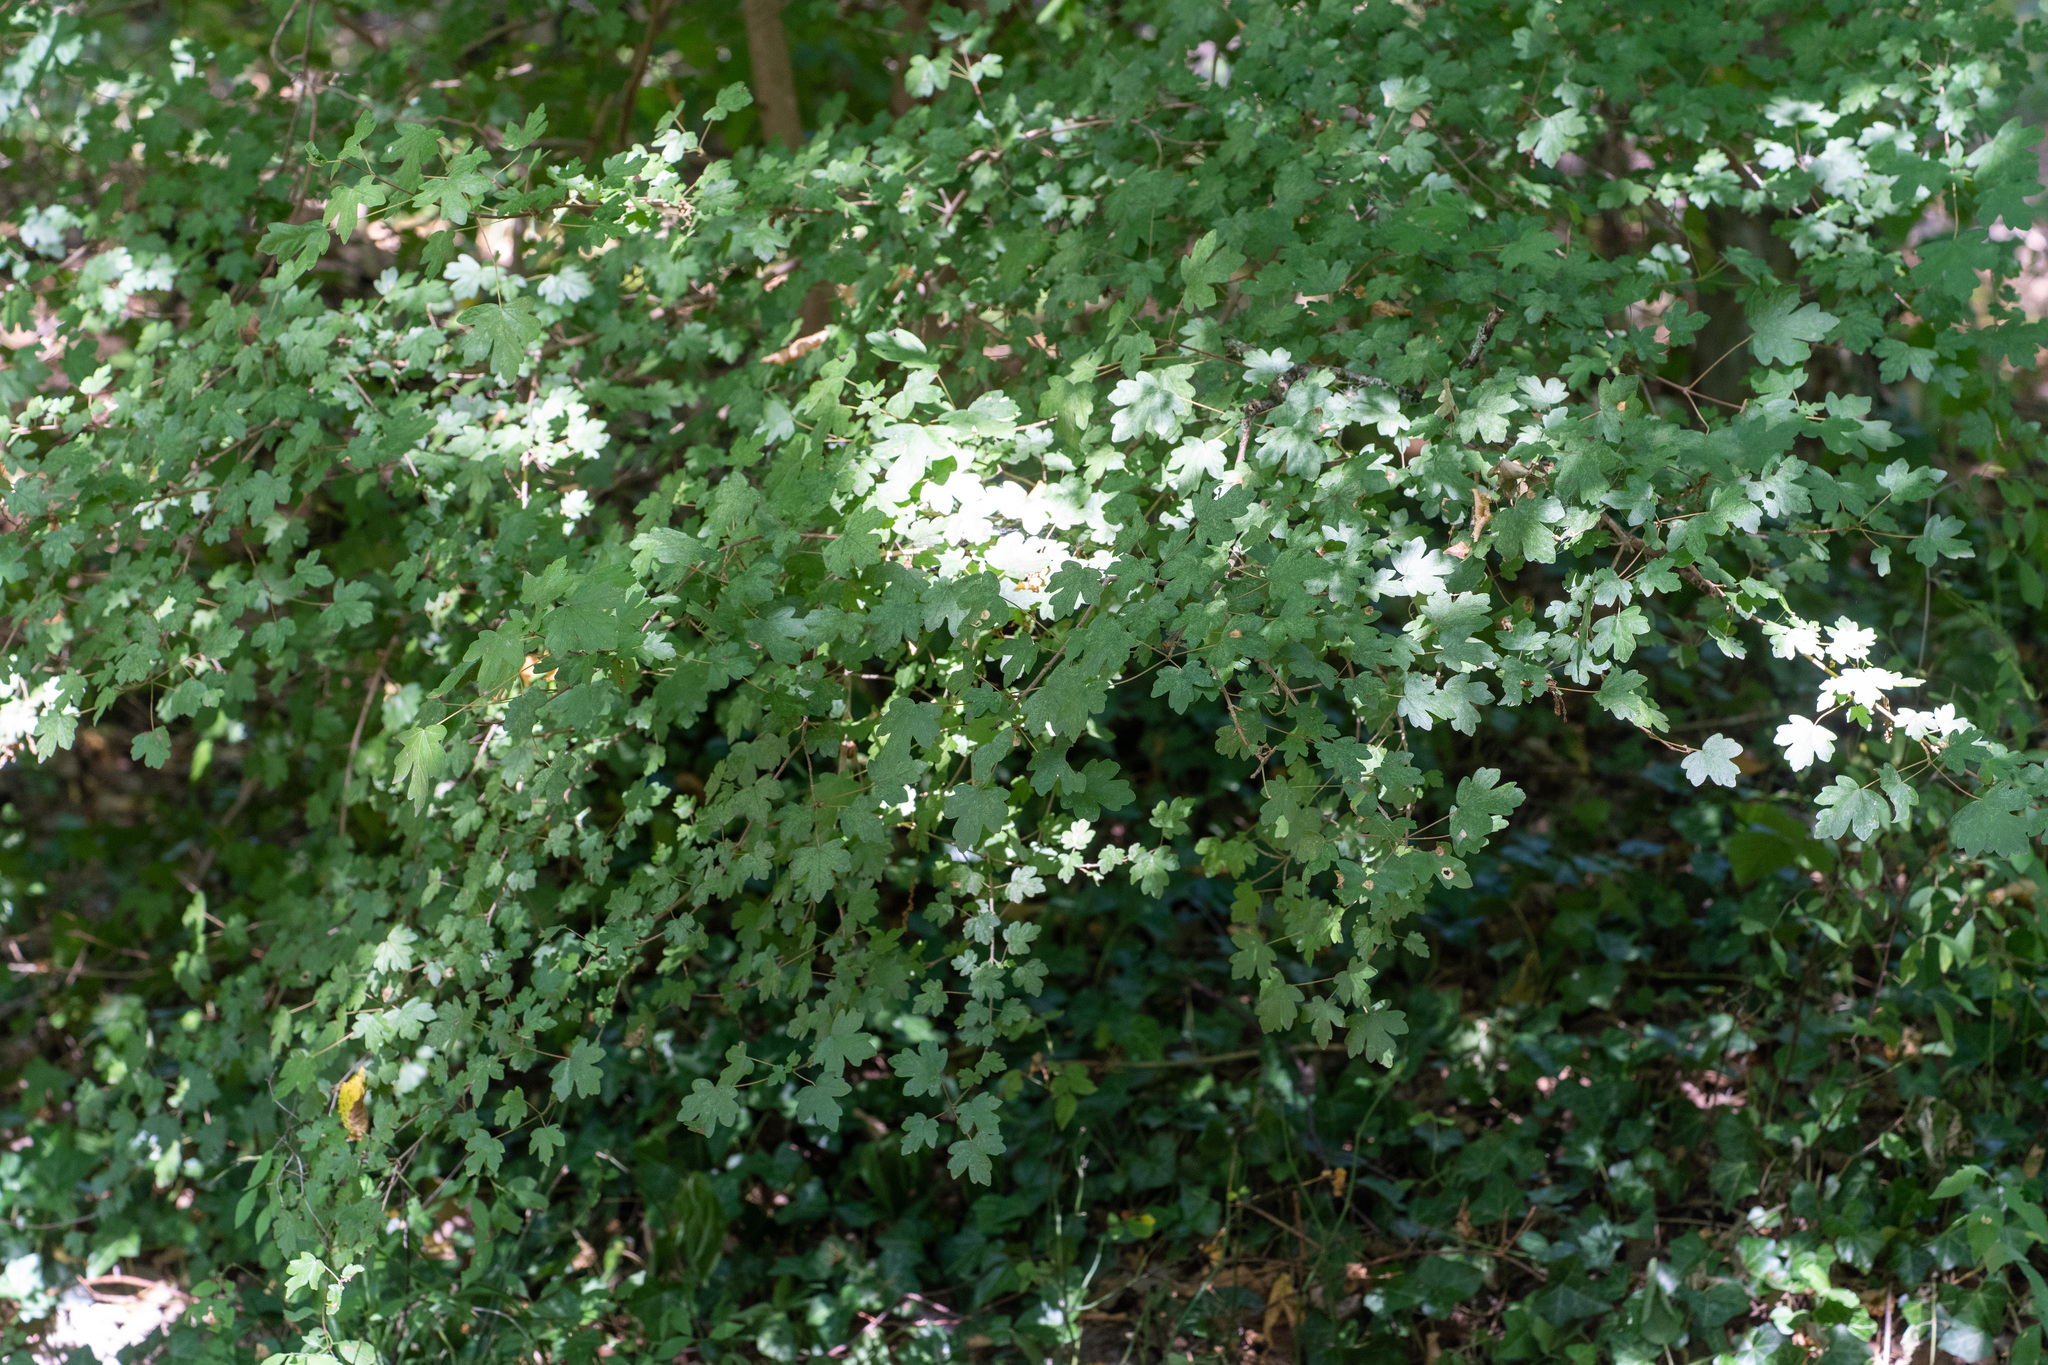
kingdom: Plantae
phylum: Tracheophyta
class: Magnoliopsida
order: Sapindales
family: Sapindaceae
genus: Acer
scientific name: Acer campestre
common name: Field maple
